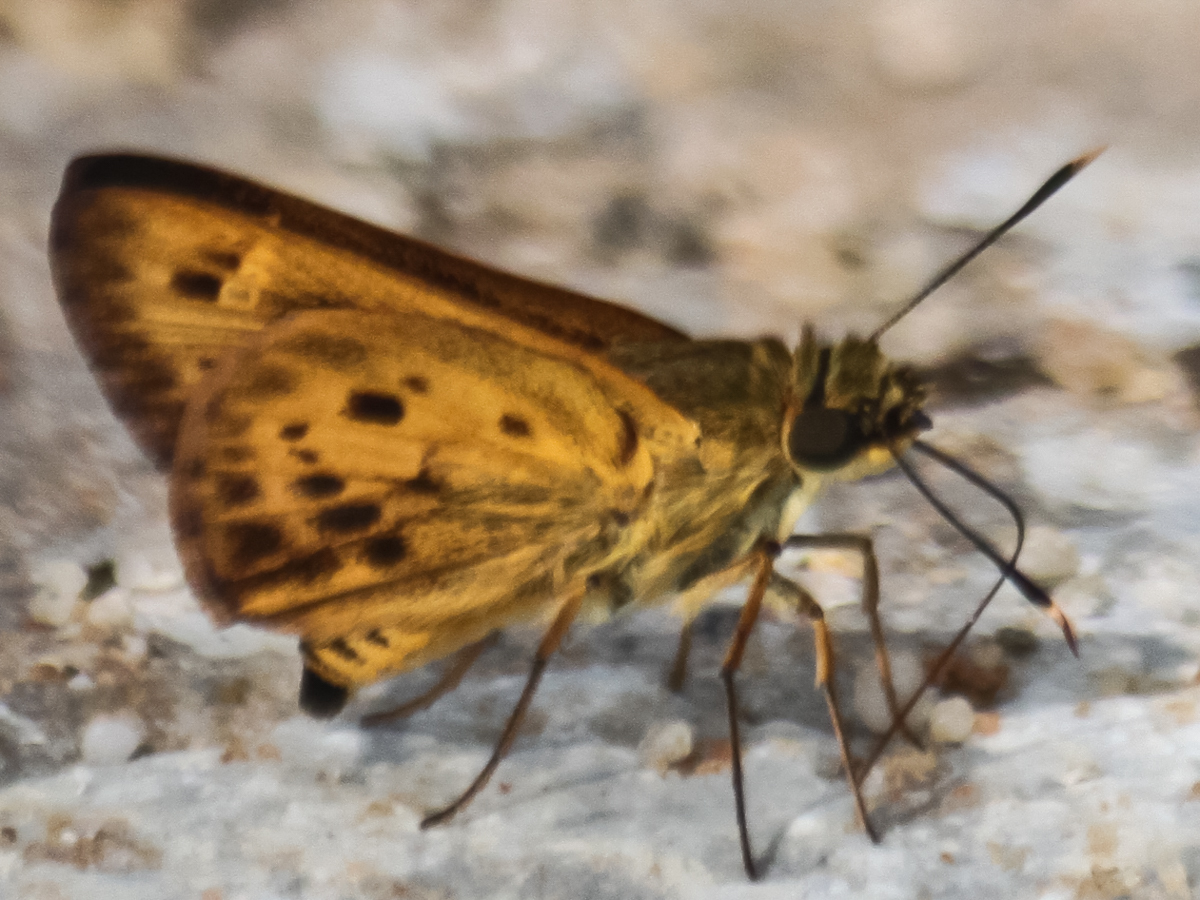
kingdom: Animalia
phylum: Arthropoda
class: Insecta
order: Lepidoptera
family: Hesperiidae
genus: Thoressa
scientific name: Thoressa masoni
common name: Golden ace
